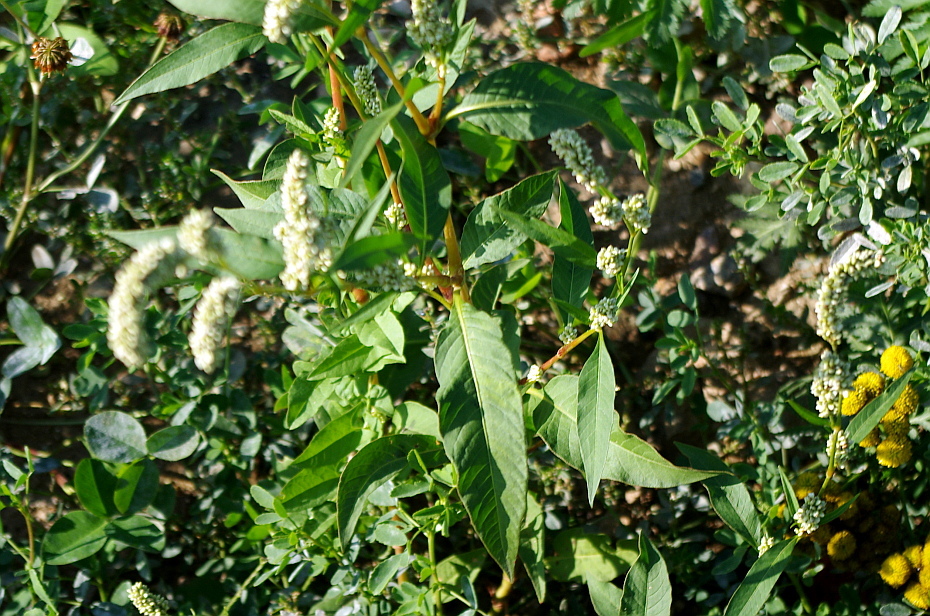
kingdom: Plantae
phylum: Tracheophyta
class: Magnoliopsida
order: Caryophyllales
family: Polygonaceae
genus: Persicaria
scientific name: Persicaria lapathifolia
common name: Curlytop knotweed
